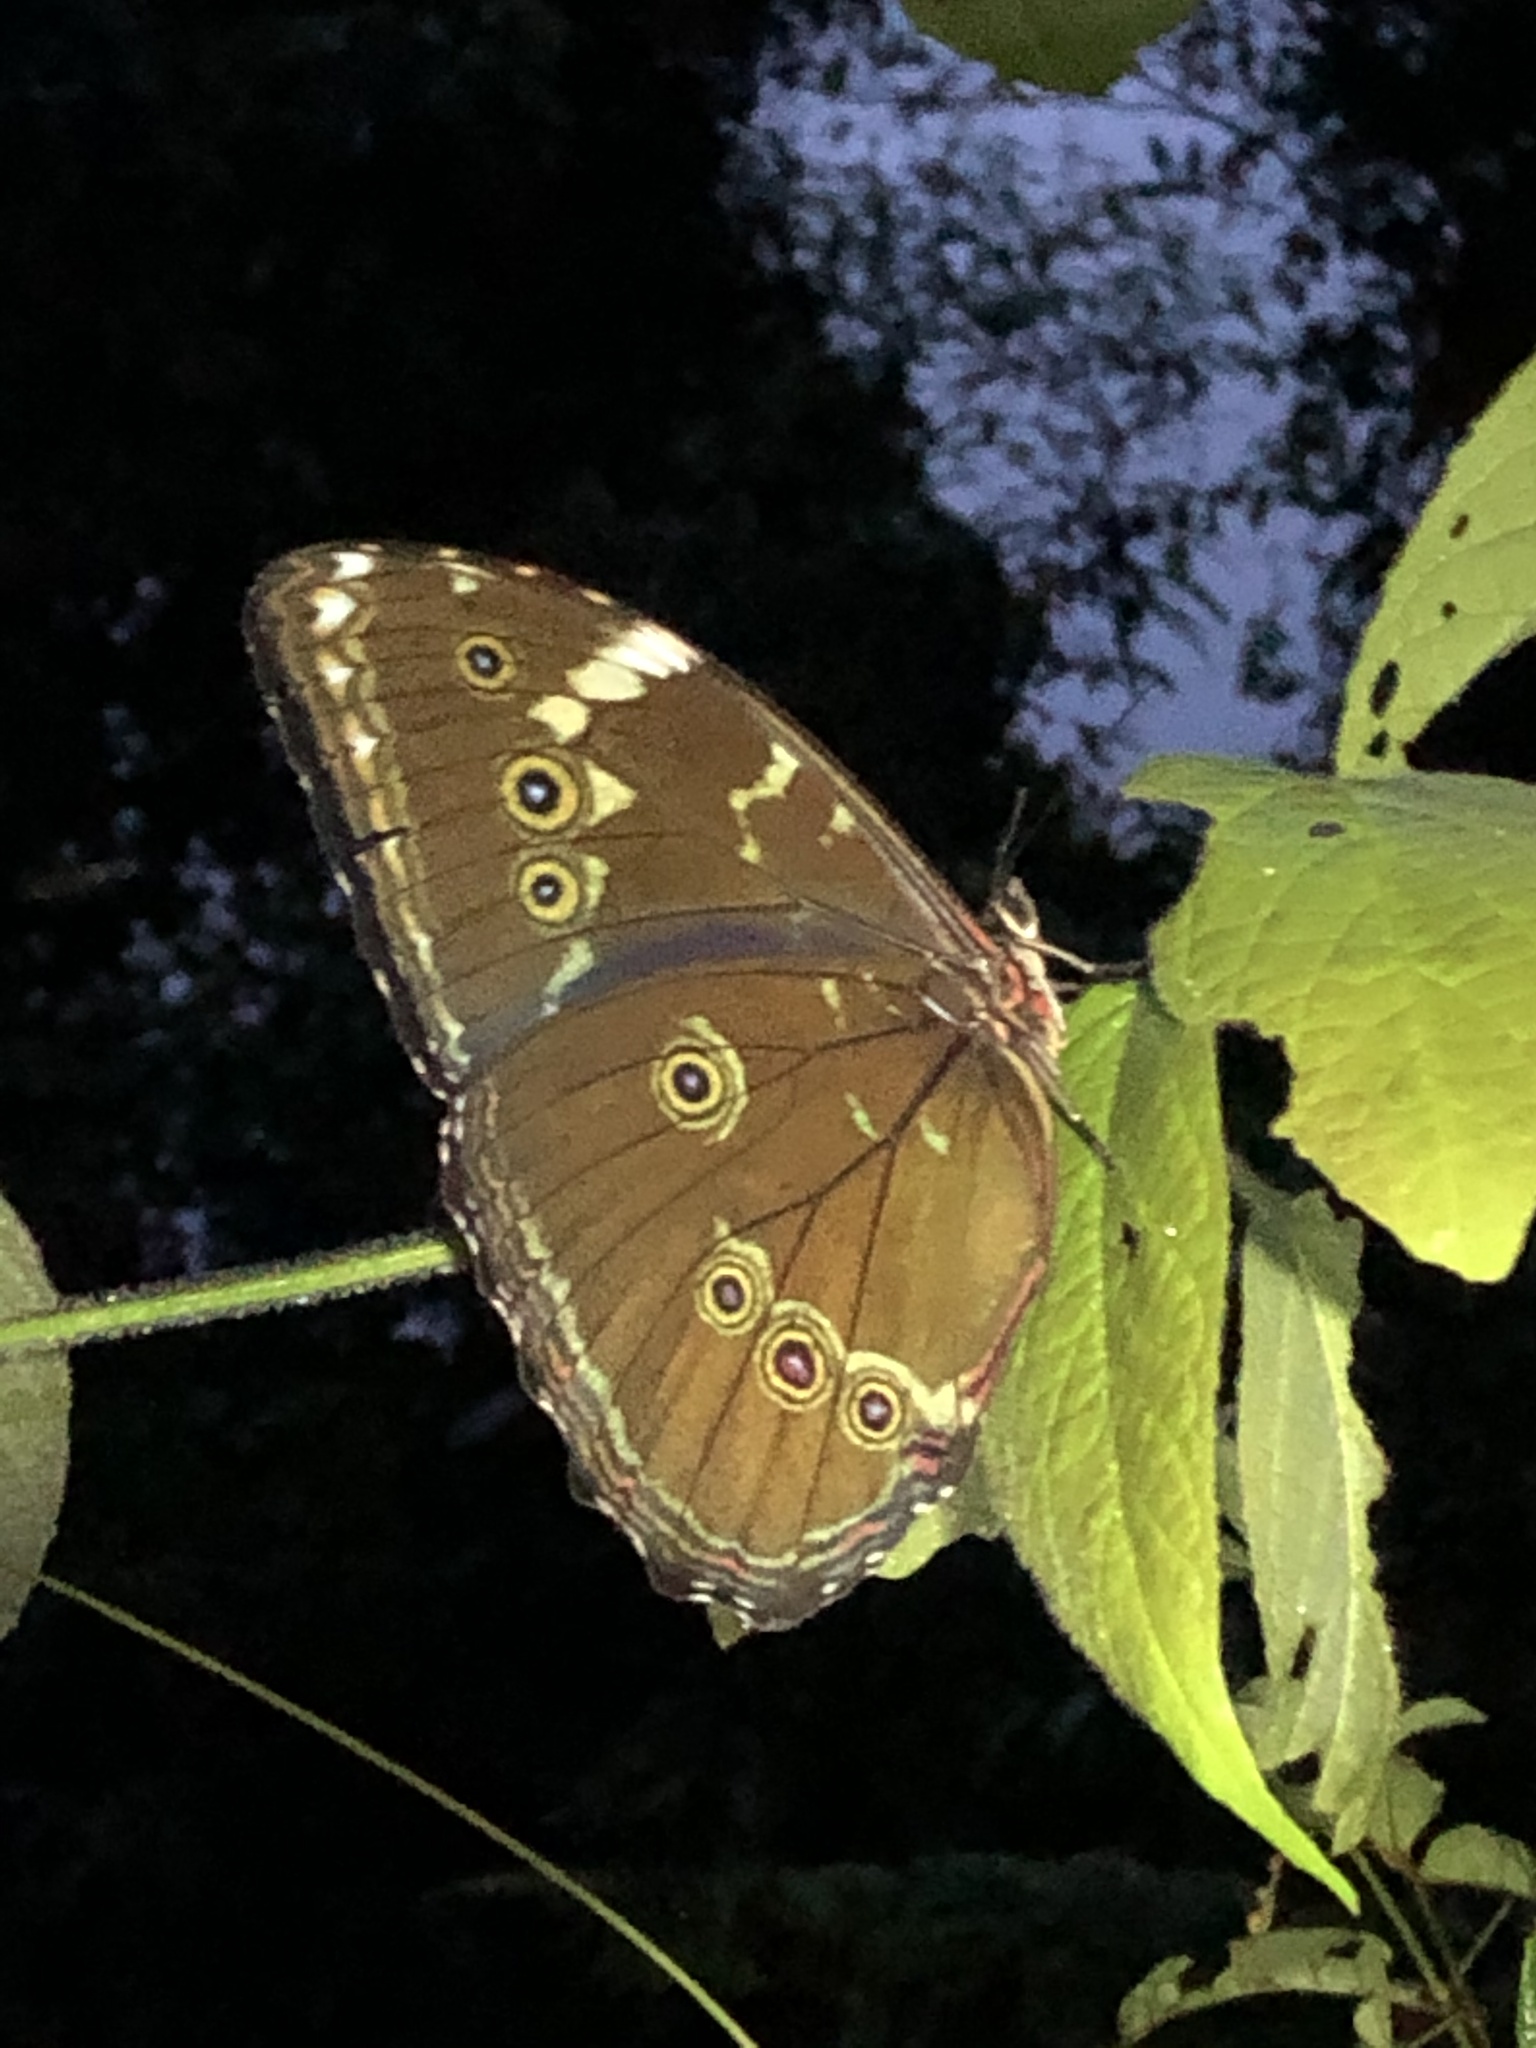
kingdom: Animalia
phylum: Arthropoda
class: Insecta
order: Lepidoptera
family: Nymphalidae
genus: Morpho
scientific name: Morpho achilles
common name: Achilles morpho
